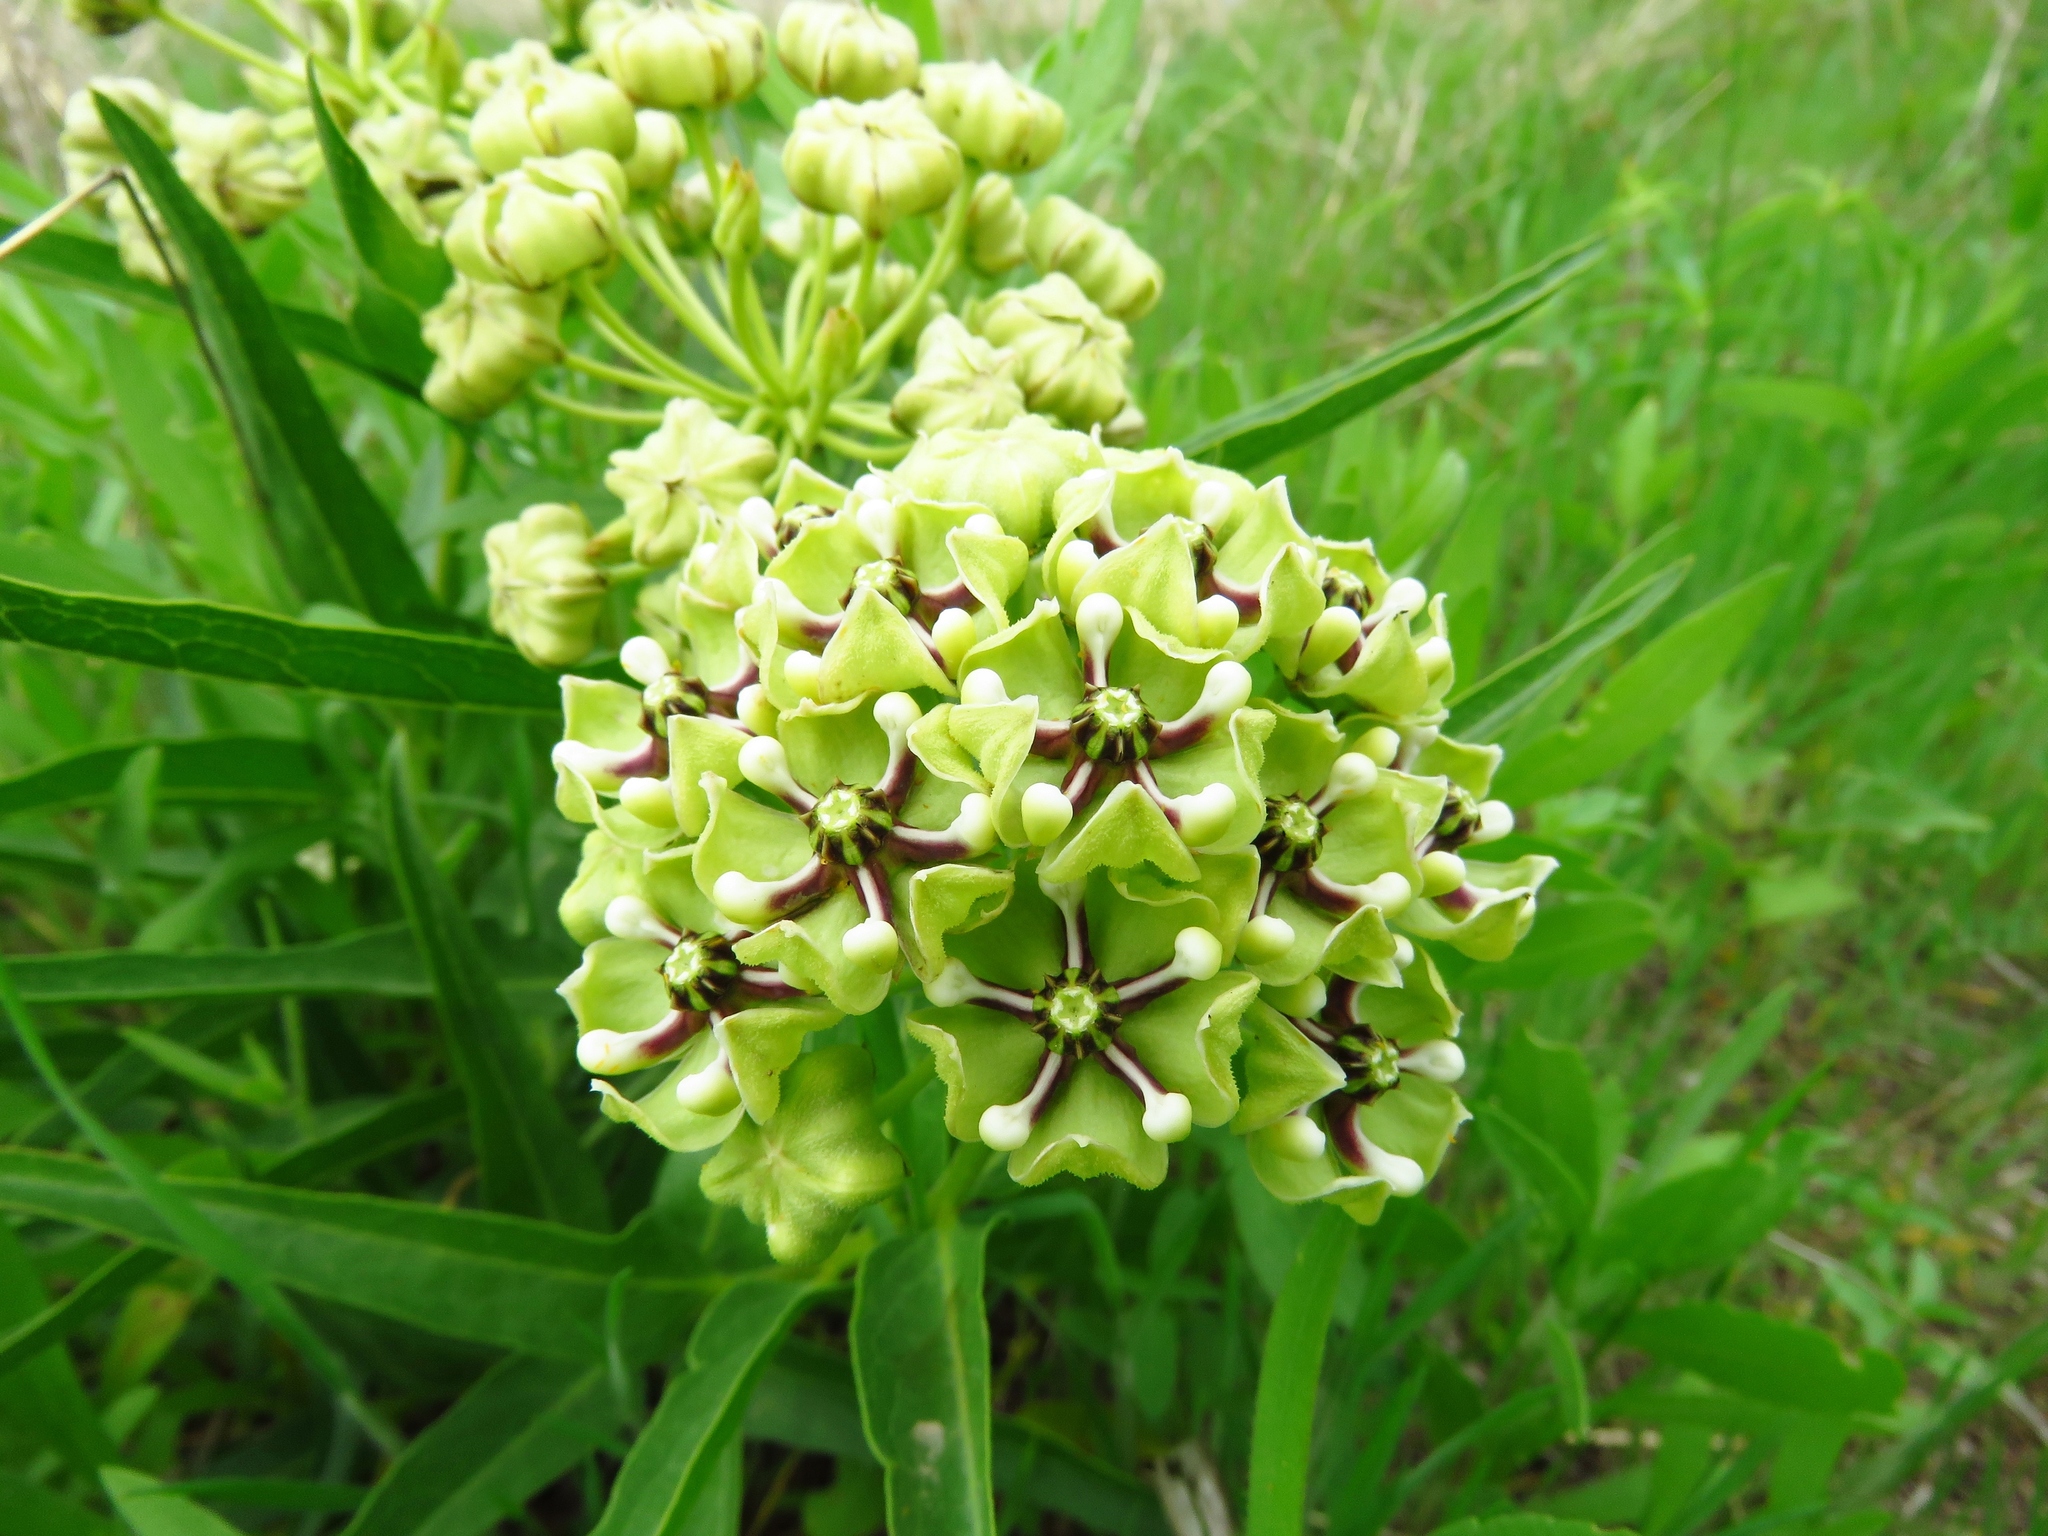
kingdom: Plantae
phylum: Tracheophyta
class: Magnoliopsida
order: Gentianales
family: Apocynaceae
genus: Asclepias
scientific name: Asclepias asperula
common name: Antelope horns
